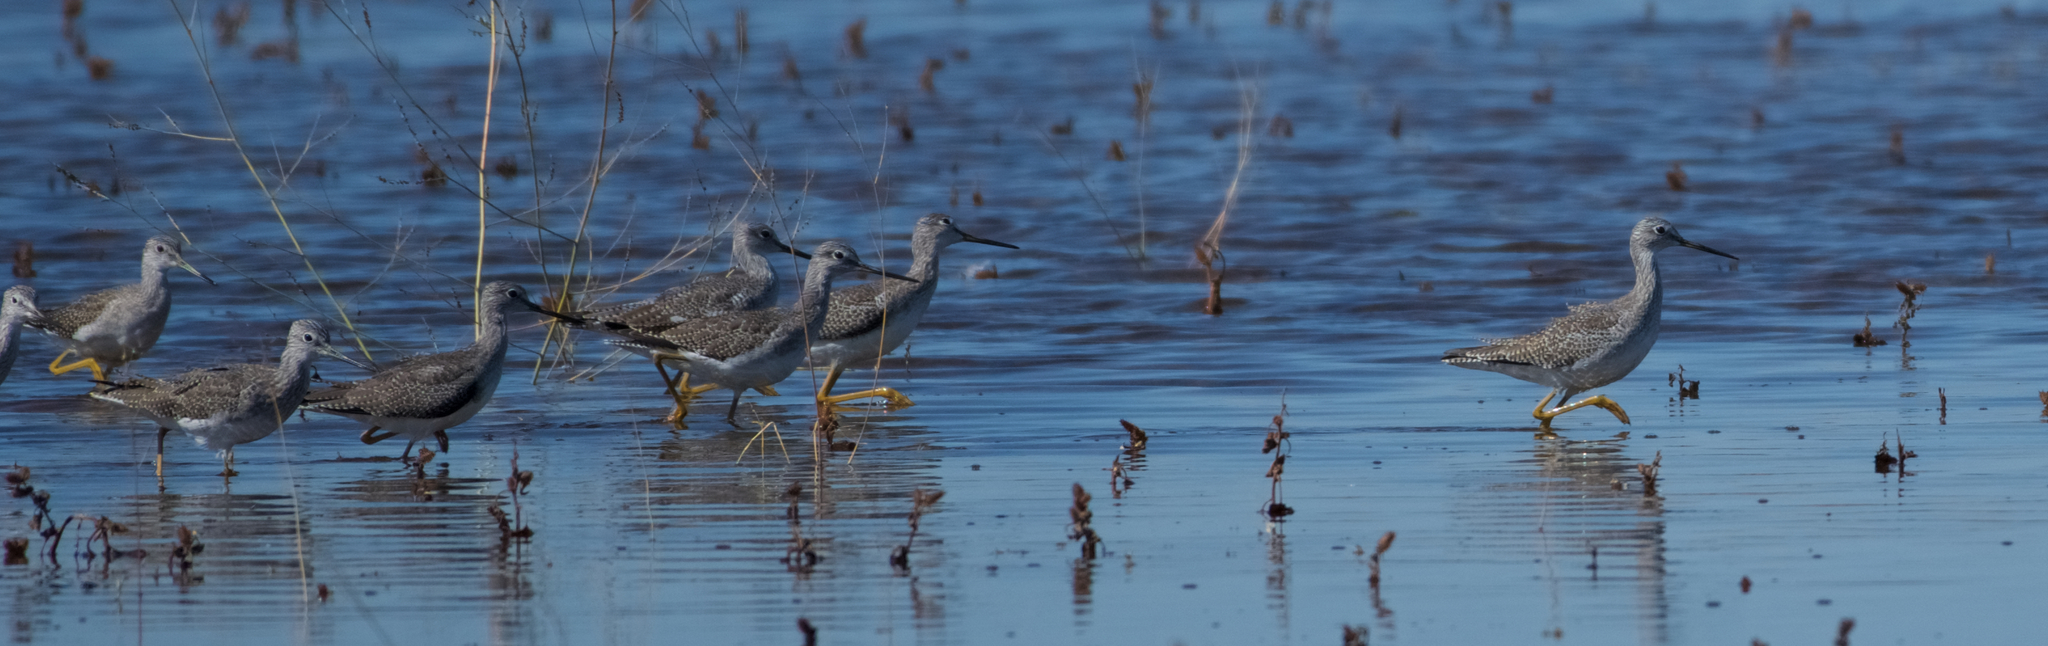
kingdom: Animalia
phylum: Chordata
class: Aves
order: Charadriiformes
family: Scolopacidae
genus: Tringa
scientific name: Tringa melanoleuca
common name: Greater yellowlegs
